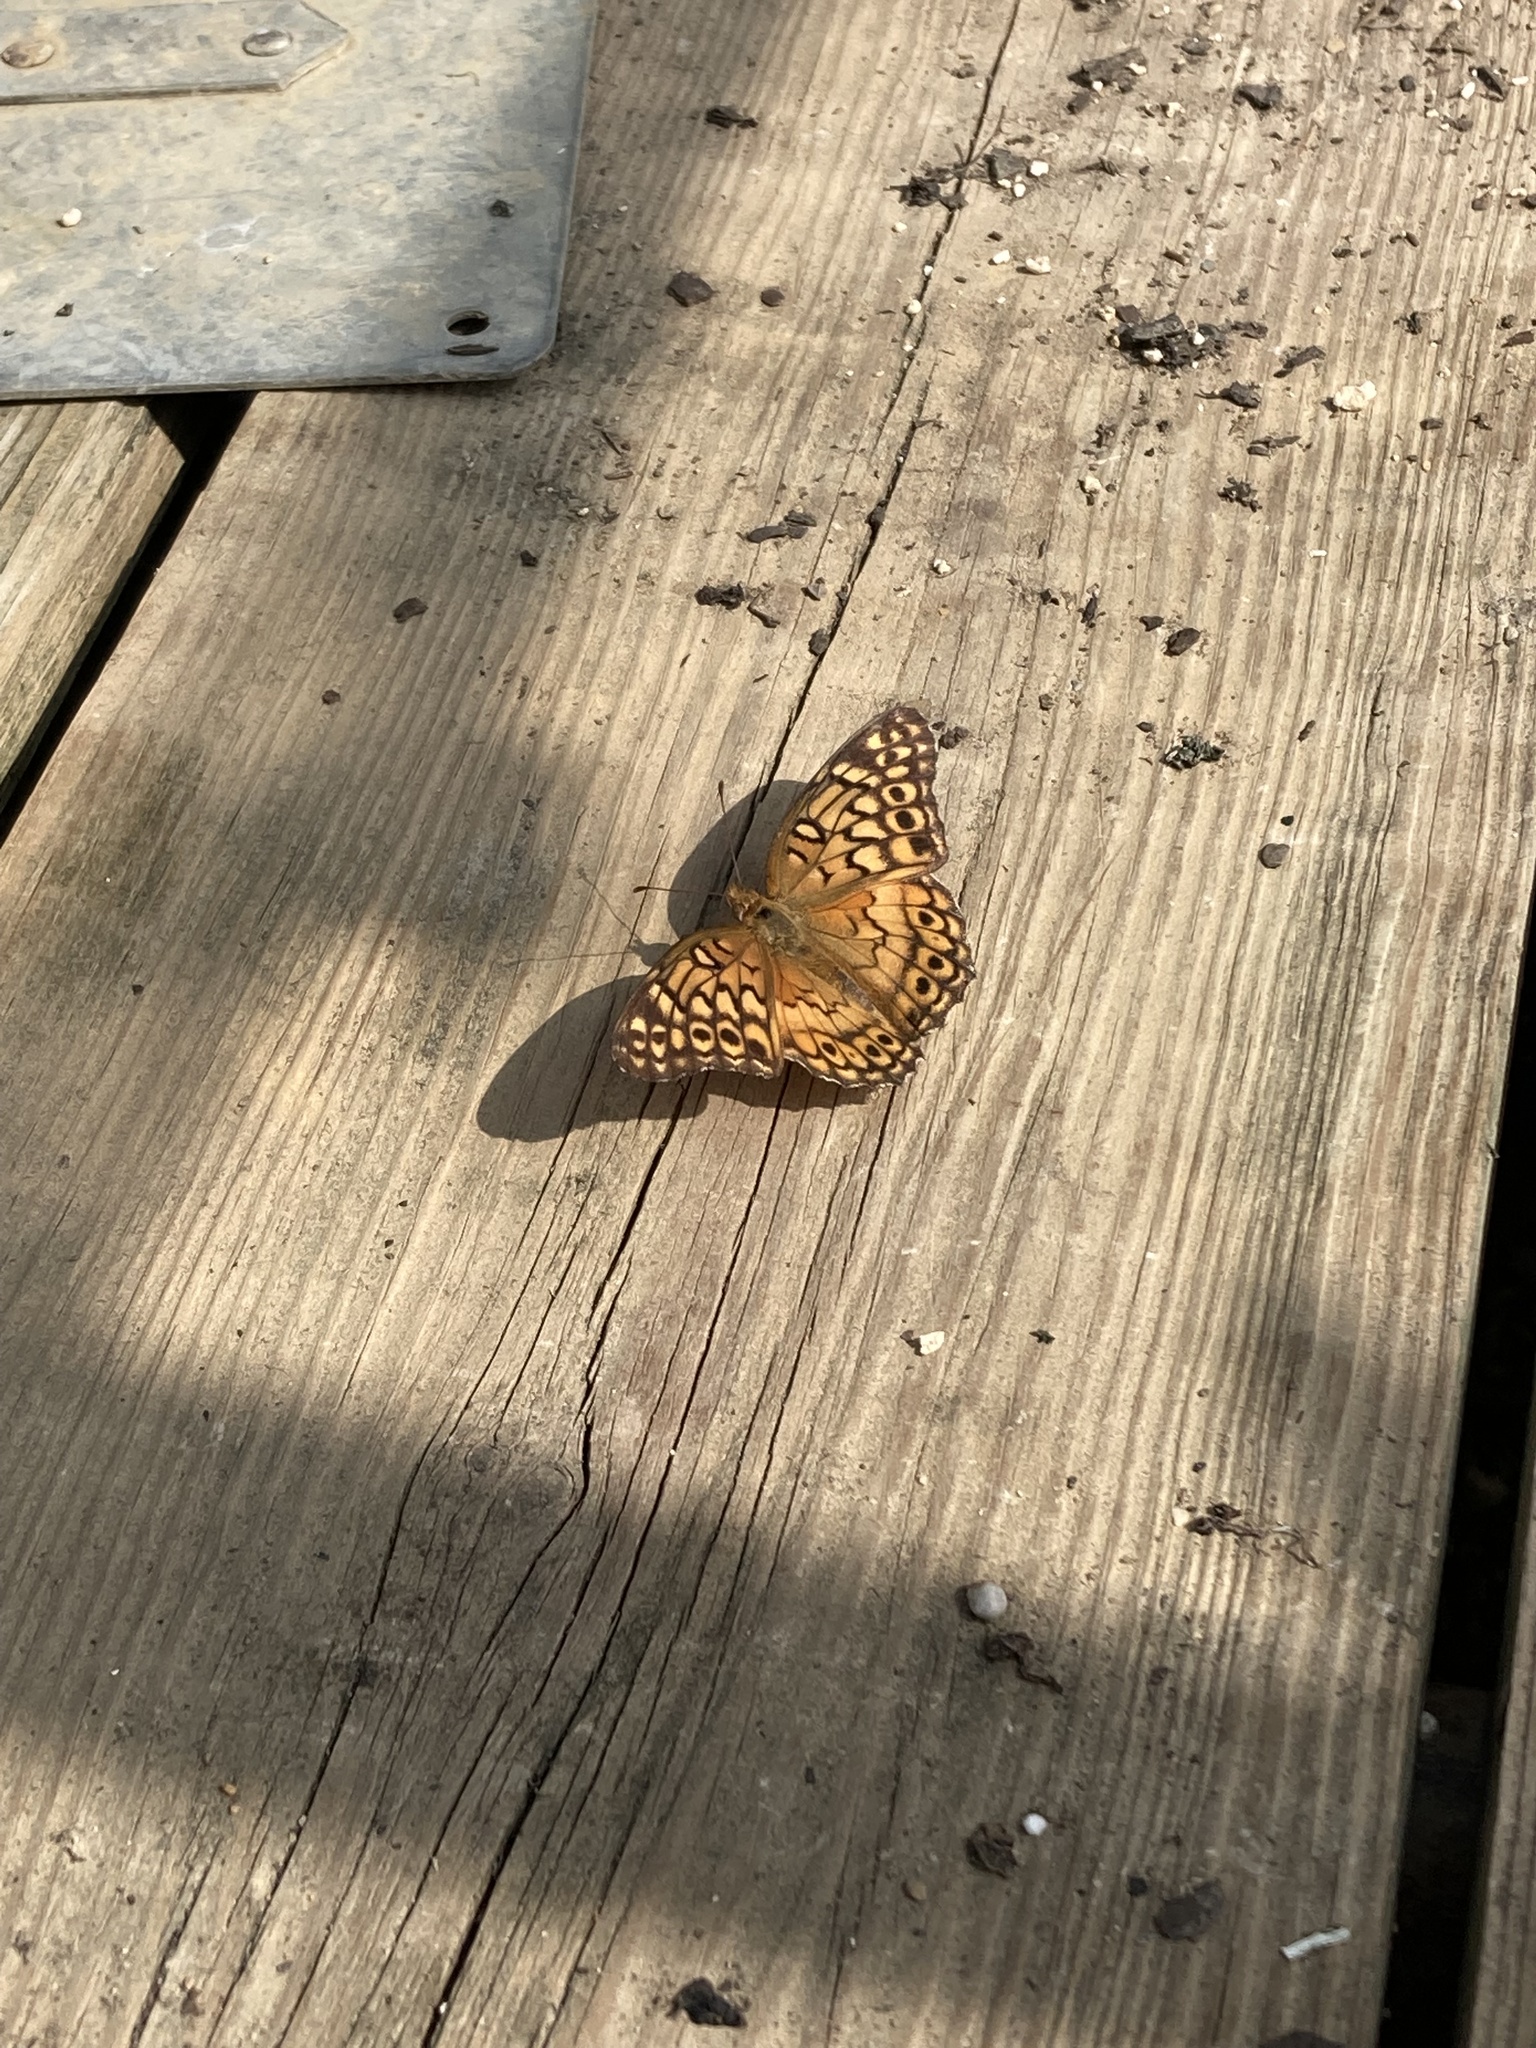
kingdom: Animalia
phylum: Arthropoda
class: Insecta
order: Lepidoptera
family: Nymphalidae
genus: Euptoieta
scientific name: Euptoieta claudia
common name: Variegated fritillary
